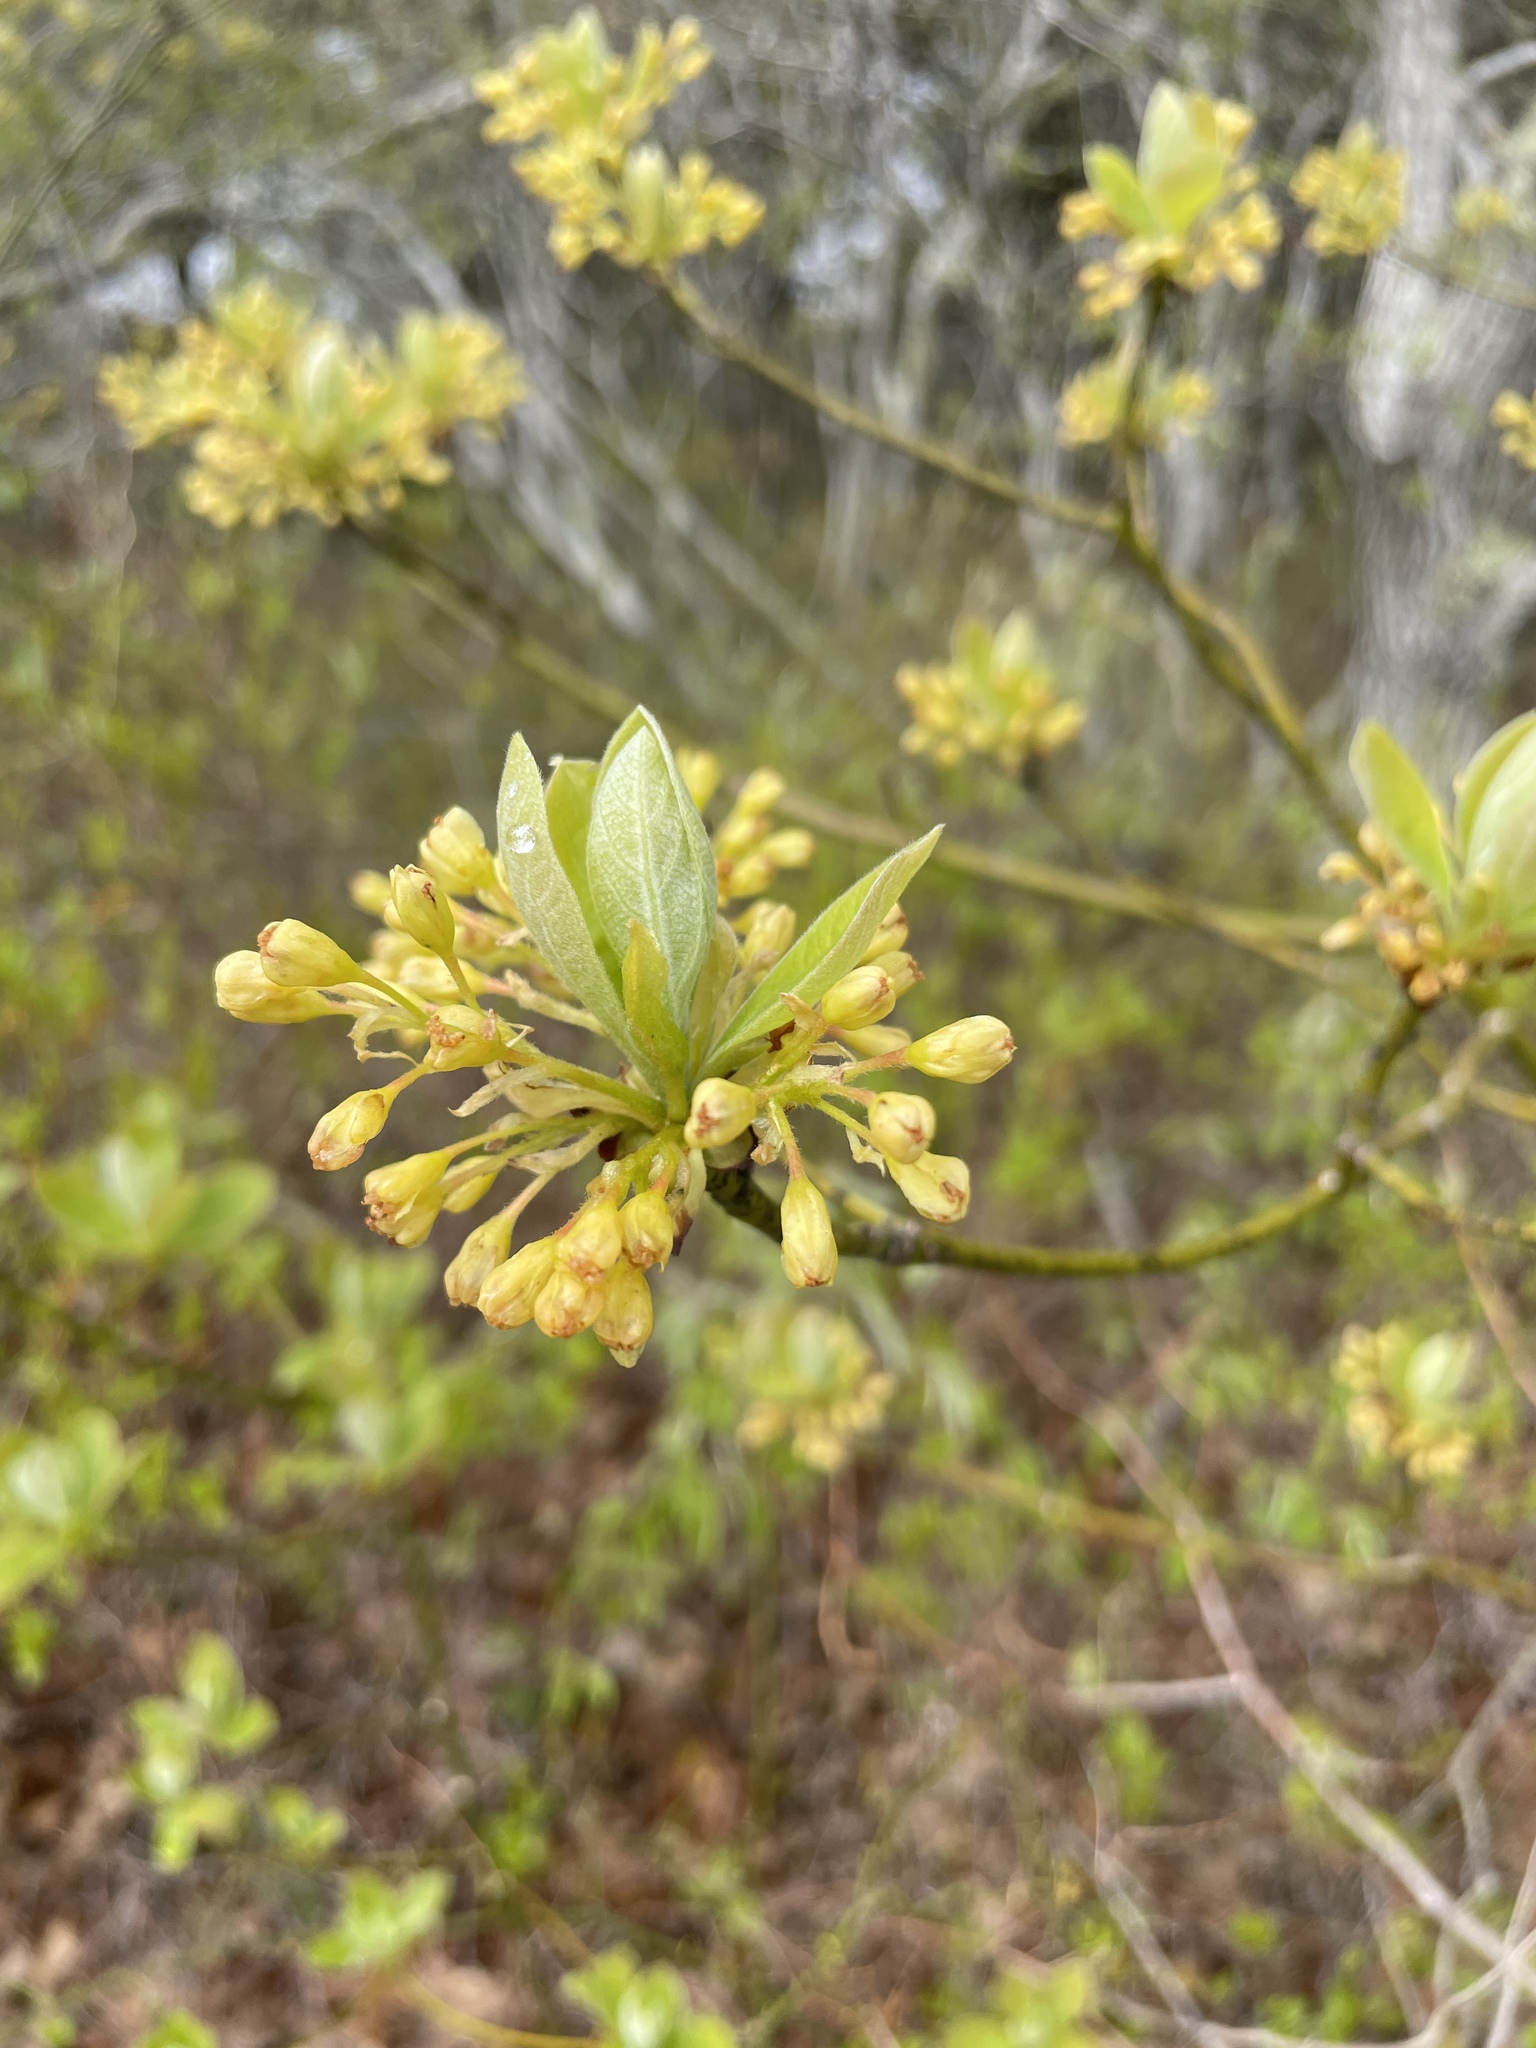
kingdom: Plantae
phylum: Tracheophyta
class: Magnoliopsida
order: Laurales
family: Lauraceae
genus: Sassafras
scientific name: Sassafras albidum
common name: Sassafras
